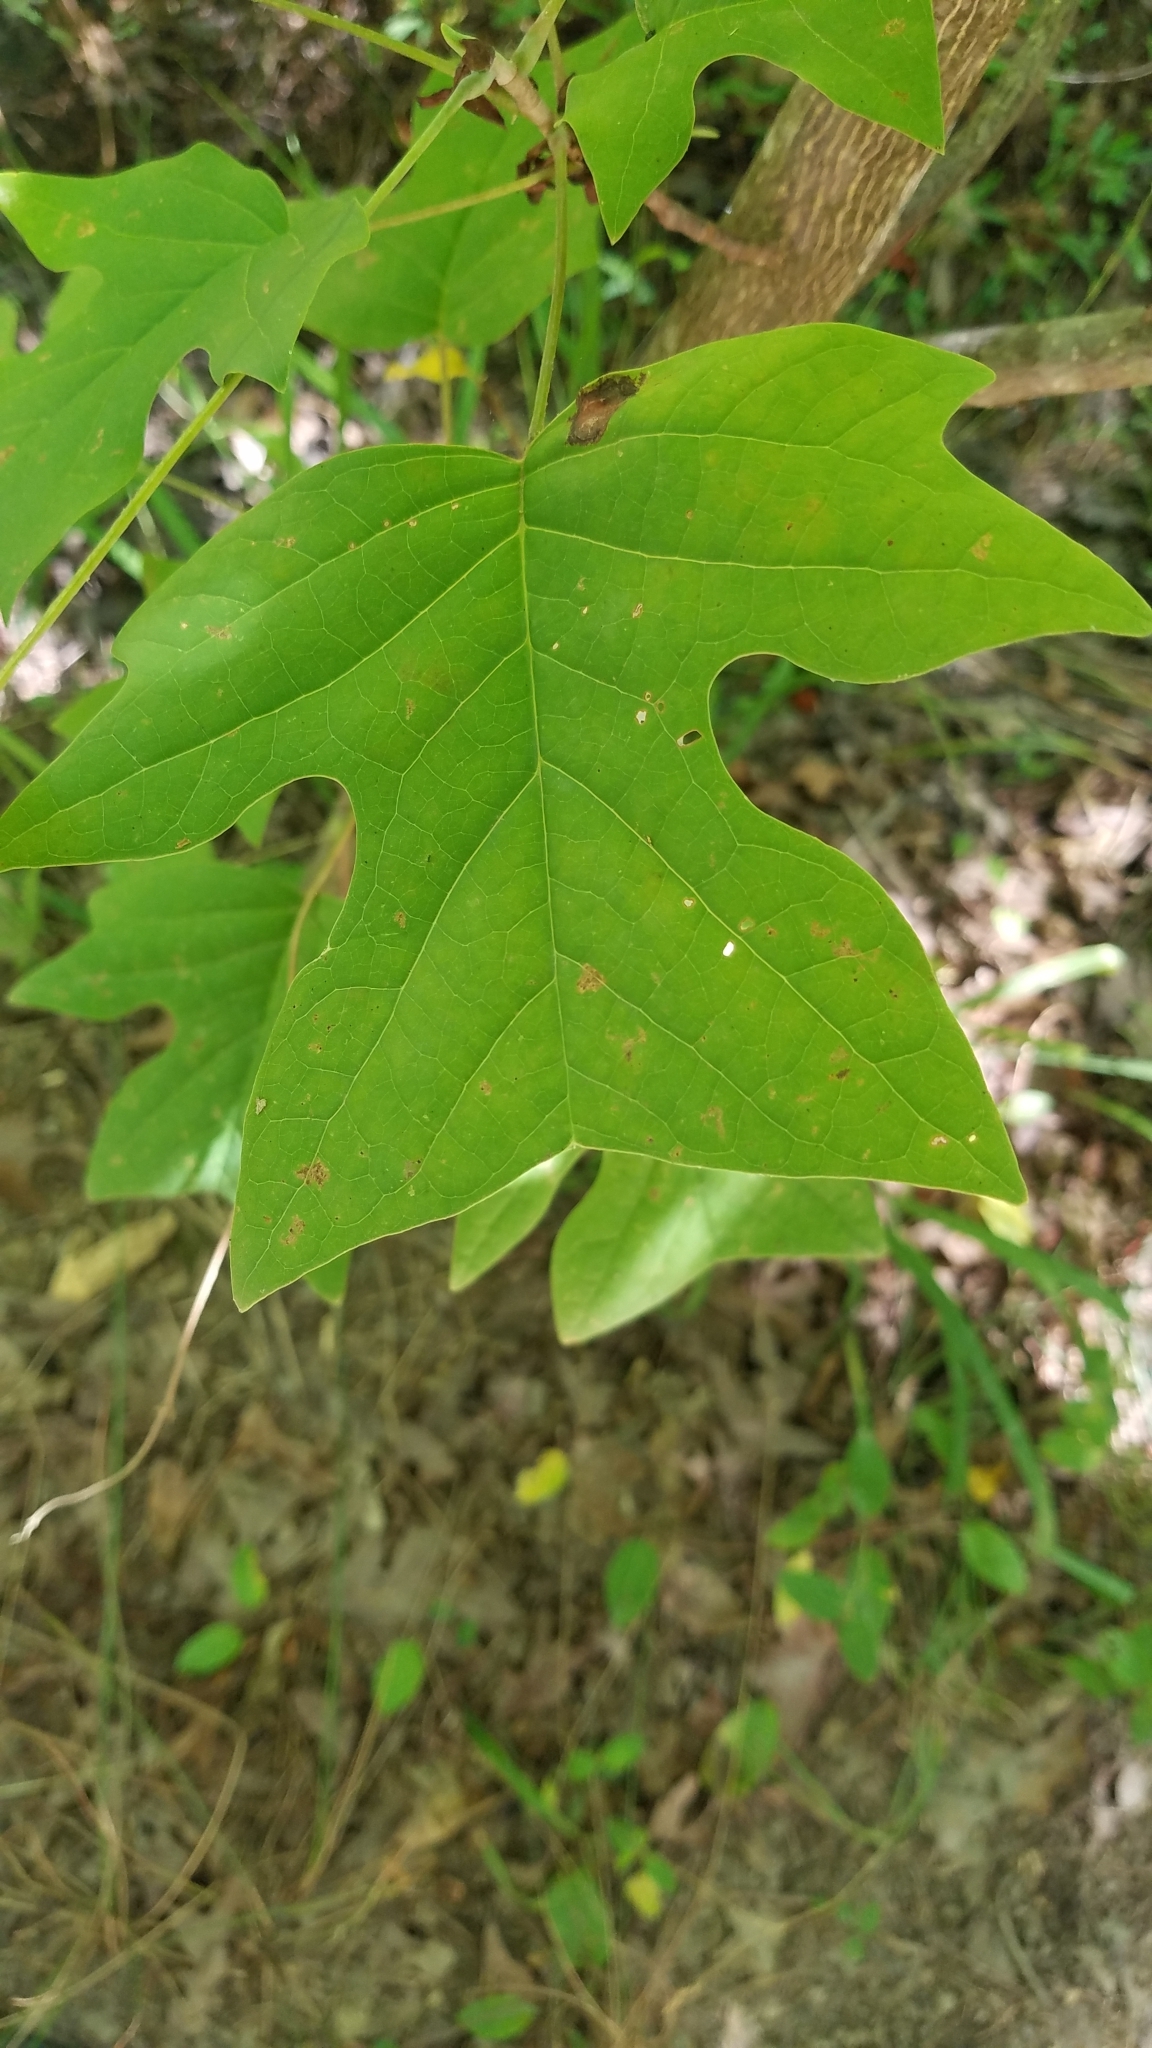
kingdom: Plantae
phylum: Tracheophyta
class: Magnoliopsida
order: Magnoliales
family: Magnoliaceae
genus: Liriodendron
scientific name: Liriodendron tulipifera
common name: Tulip tree
